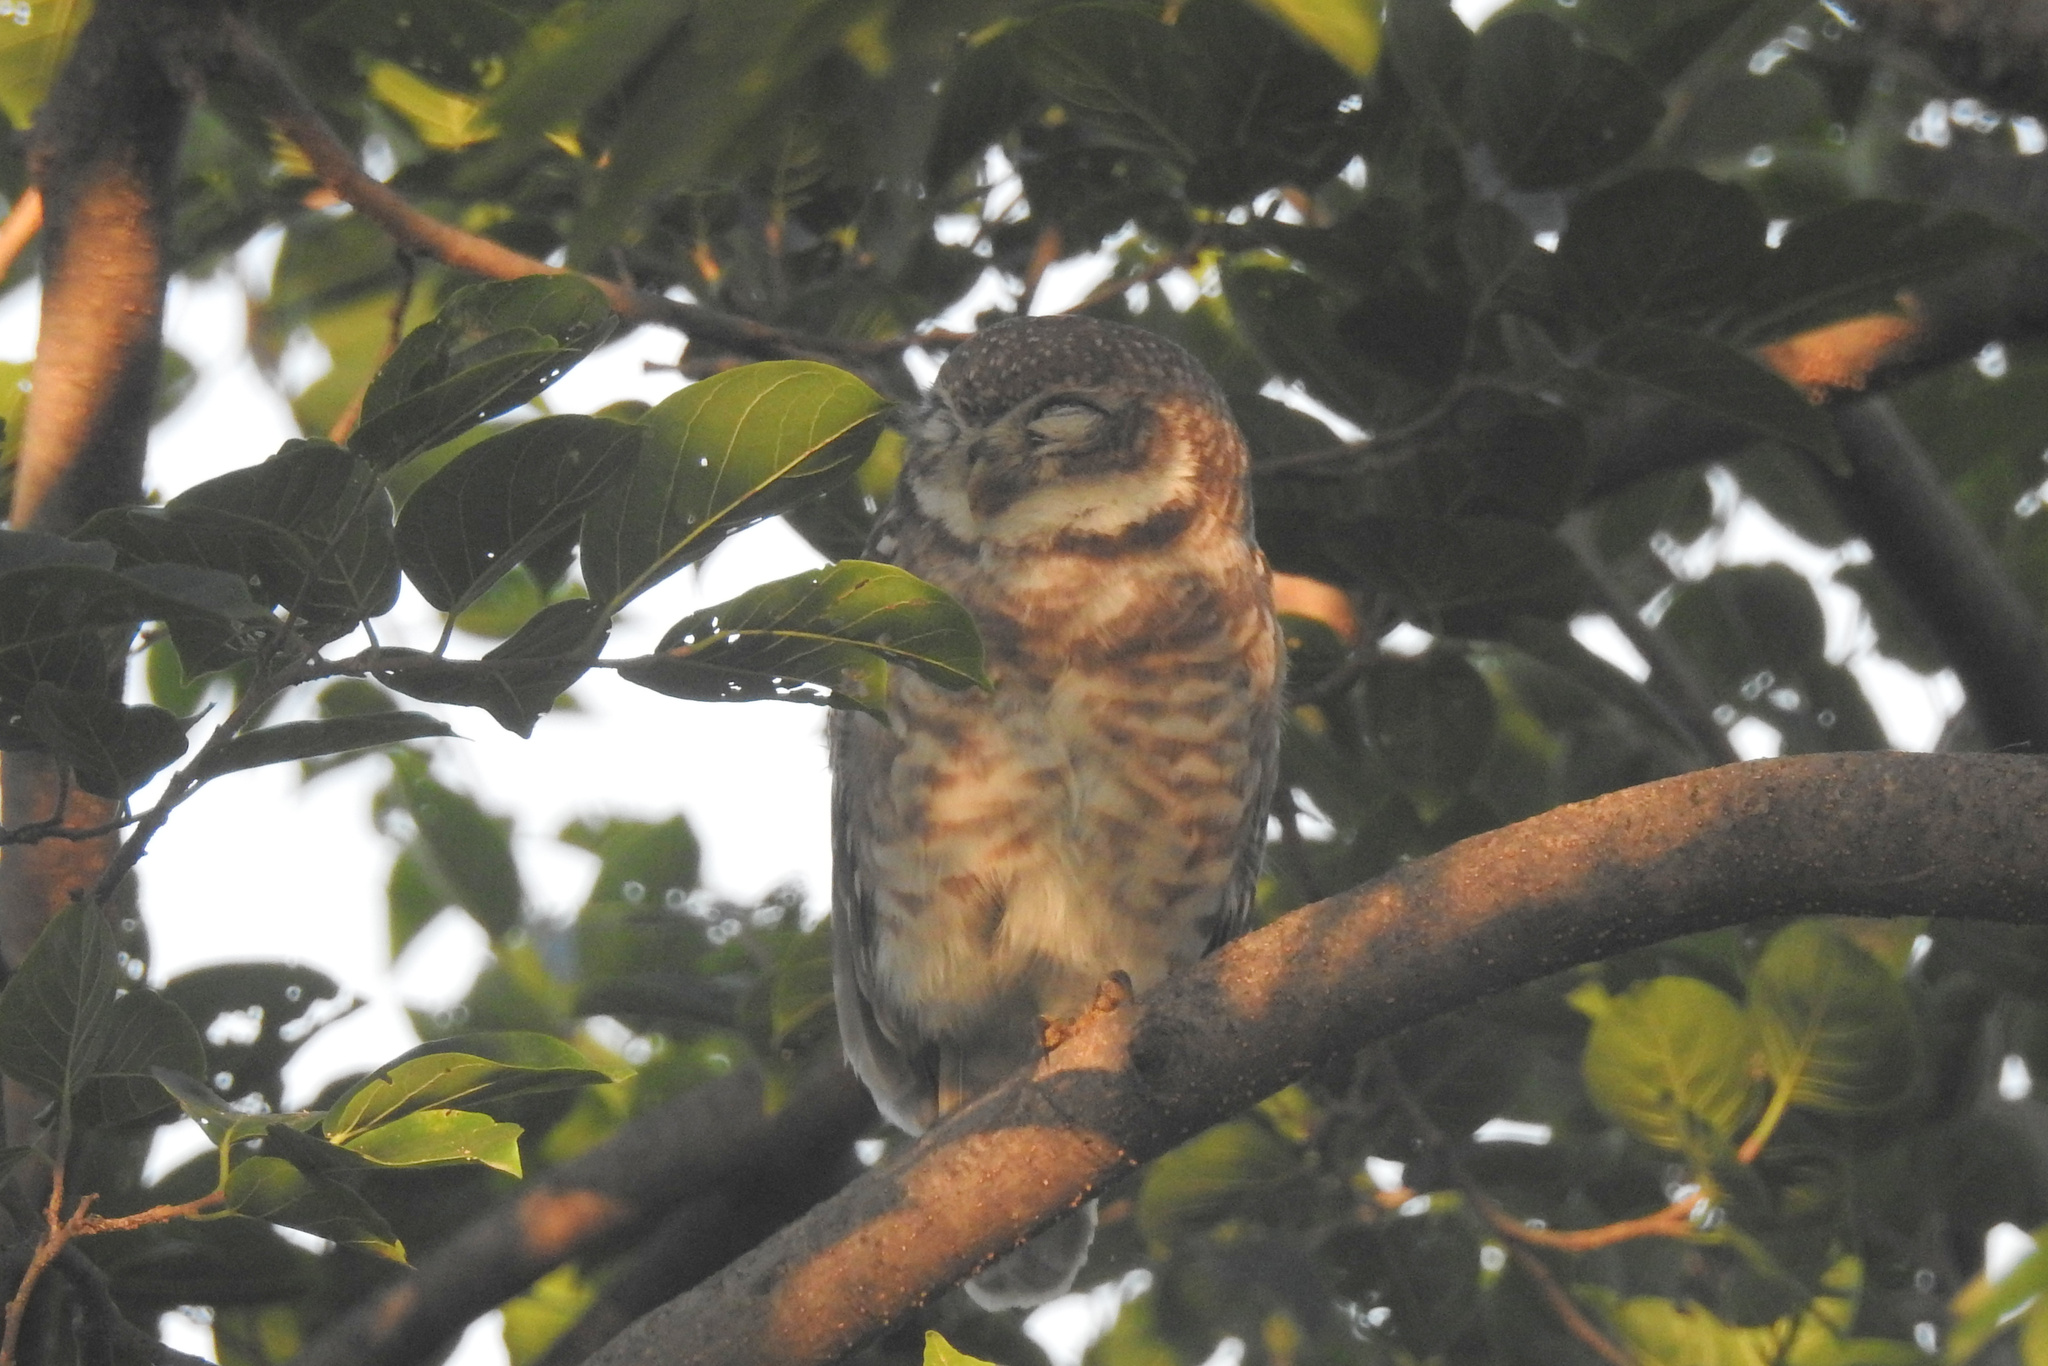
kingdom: Animalia
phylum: Chordata
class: Aves
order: Strigiformes
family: Strigidae
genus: Athene
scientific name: Athene brama
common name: Spotted owlet
